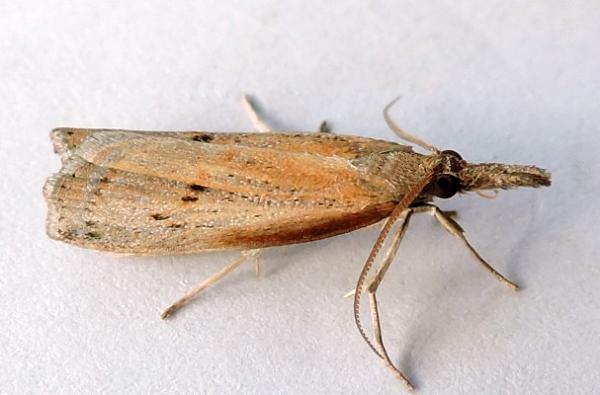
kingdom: Animalia
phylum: Arthropoda
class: Insecta
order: Lepidoptera
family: Crambidae
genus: Fissicrambus
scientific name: Fissicrambus mutabilis
